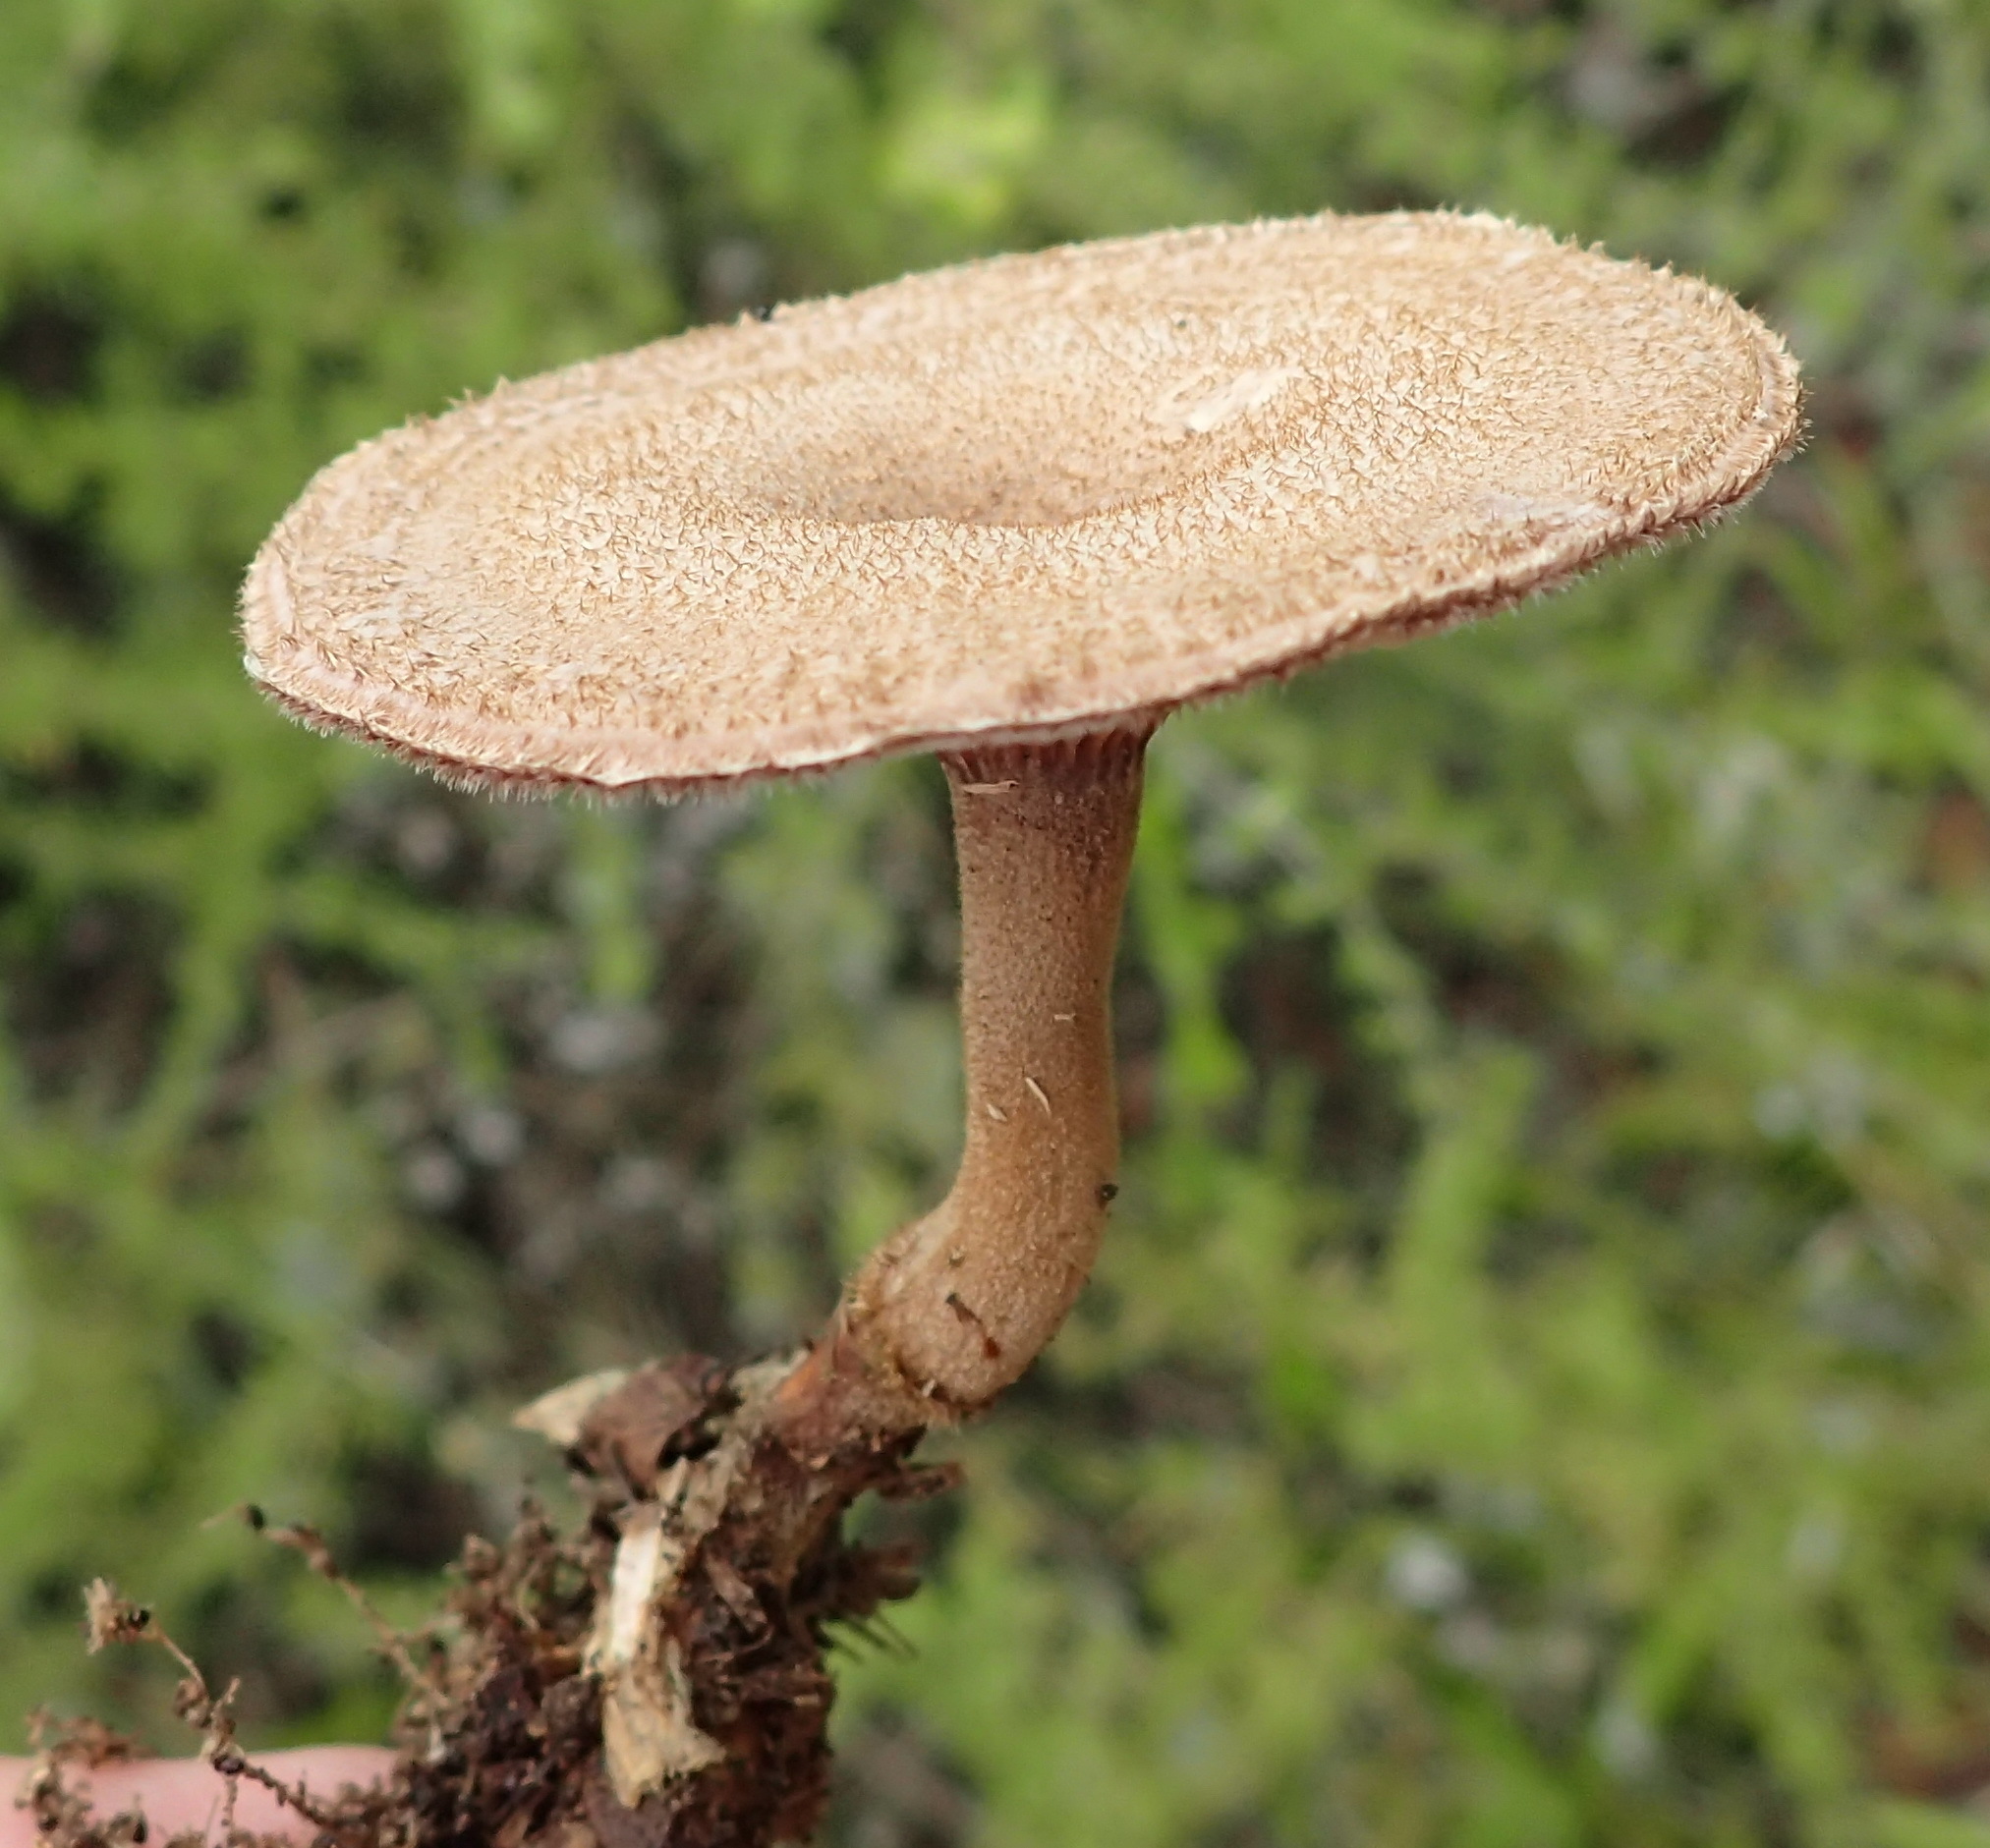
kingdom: Fungi
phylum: Basidiomycota
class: Agaricomycetes
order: Polyporales
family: Polyporaceae
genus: Lentinus
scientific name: Lentinus stuppeus
